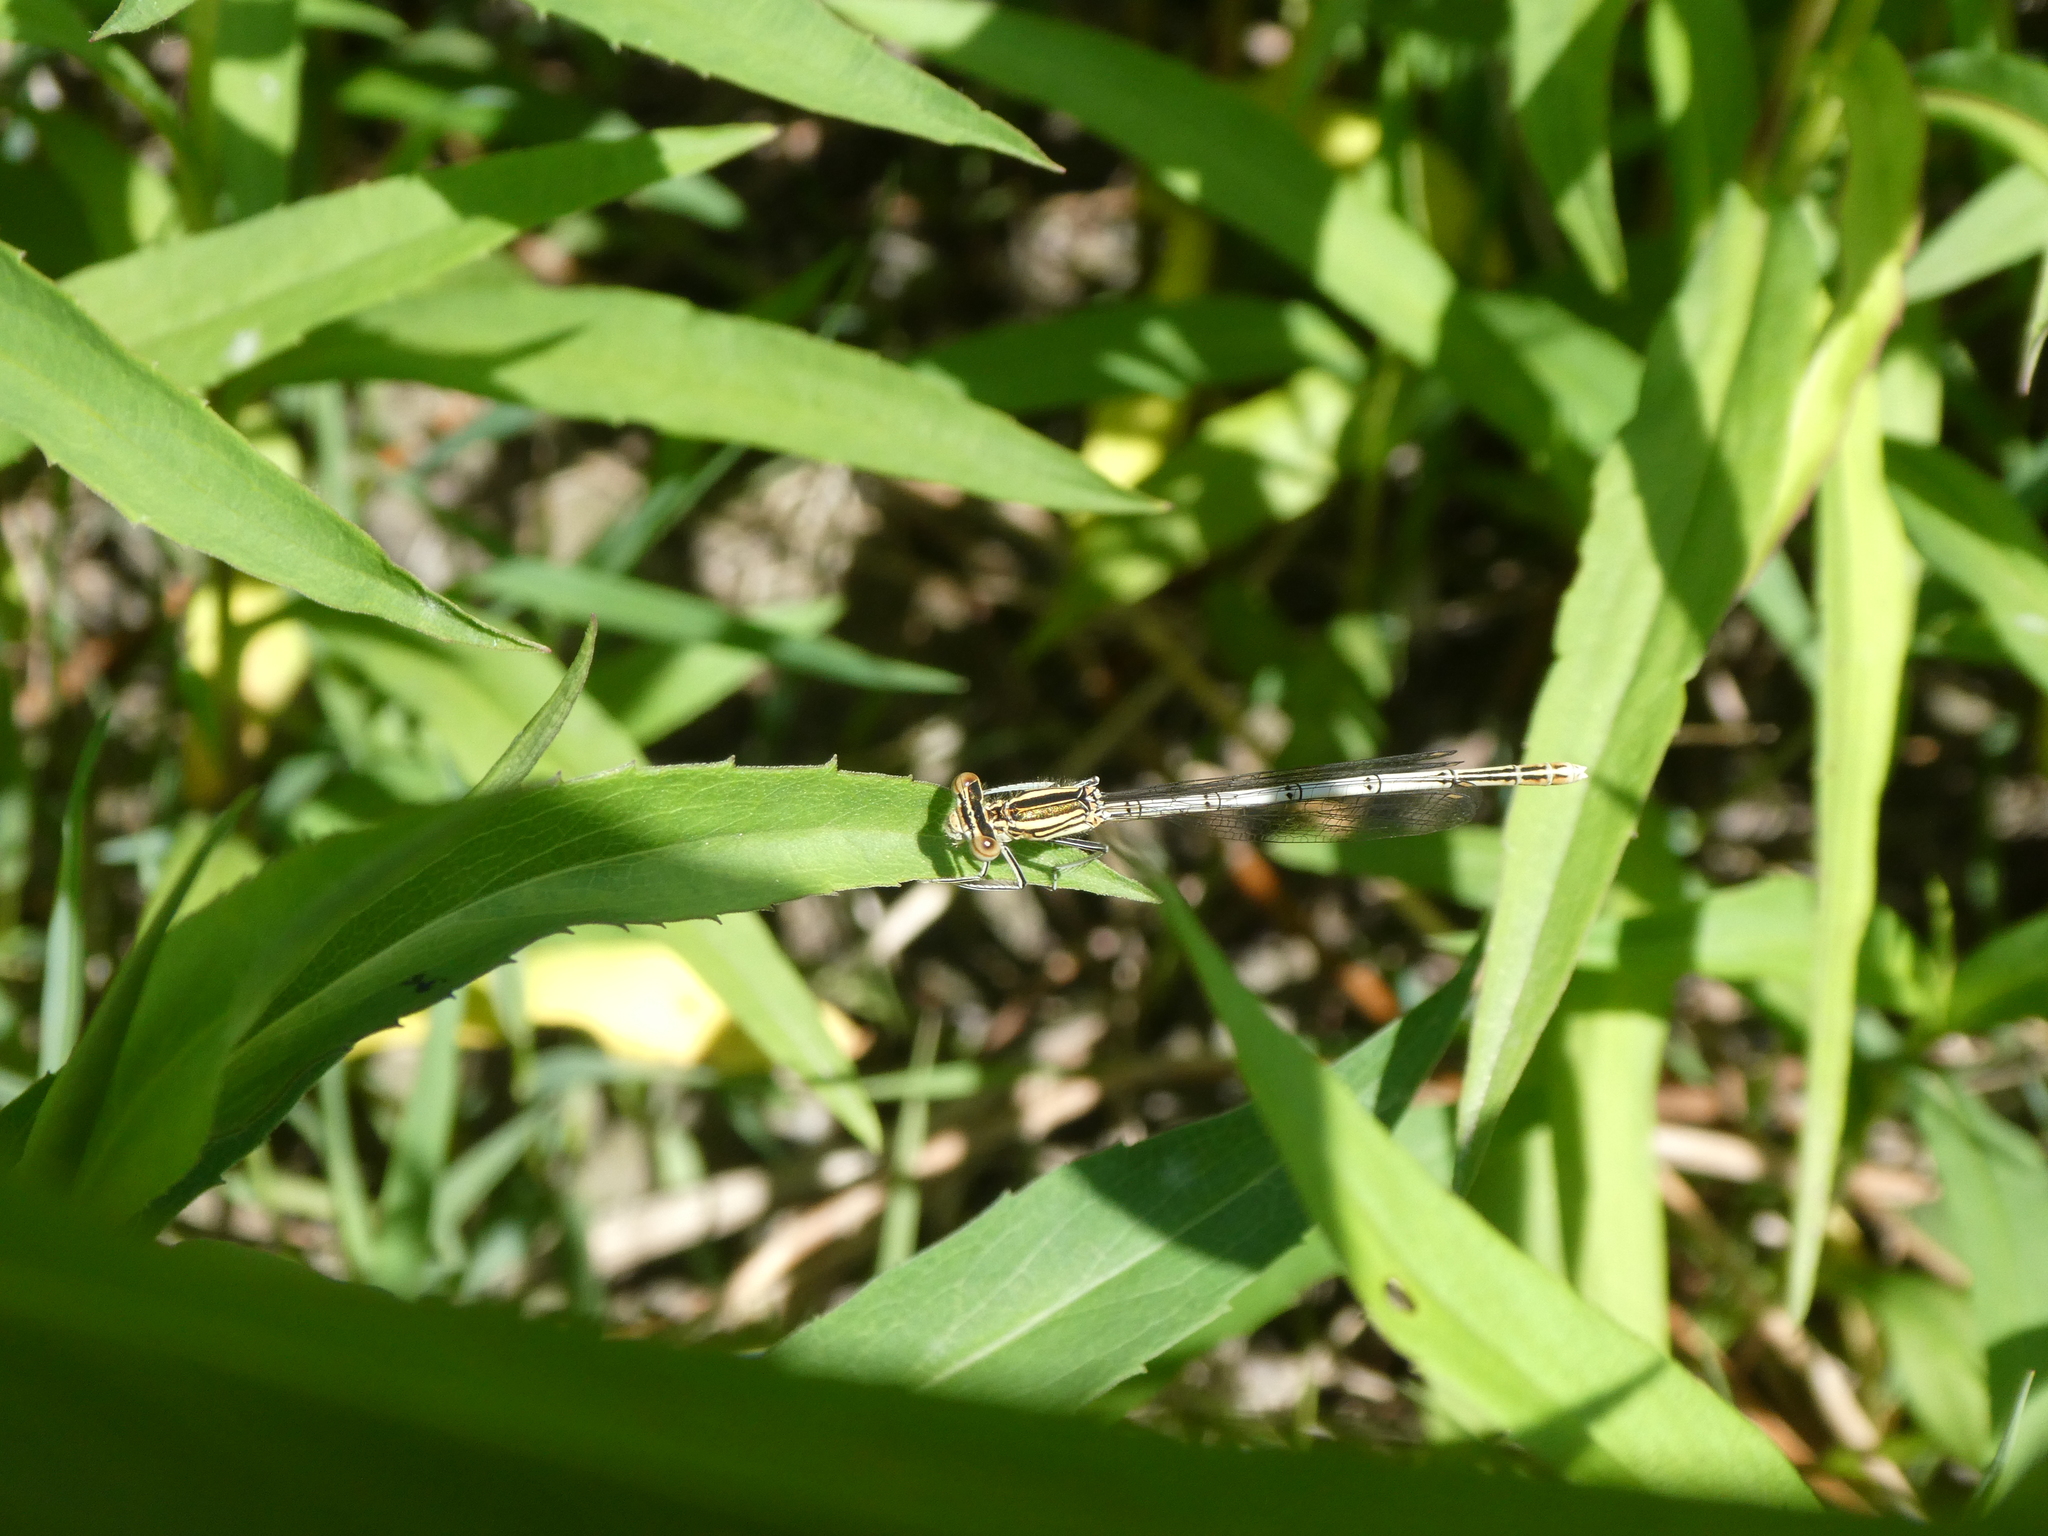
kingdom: Animalia
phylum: Arthropoda
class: Insecta
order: Odonata
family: Platycnemididae
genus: Platycnemis
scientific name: Platycnemis pennipes
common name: White-legged damselfly
